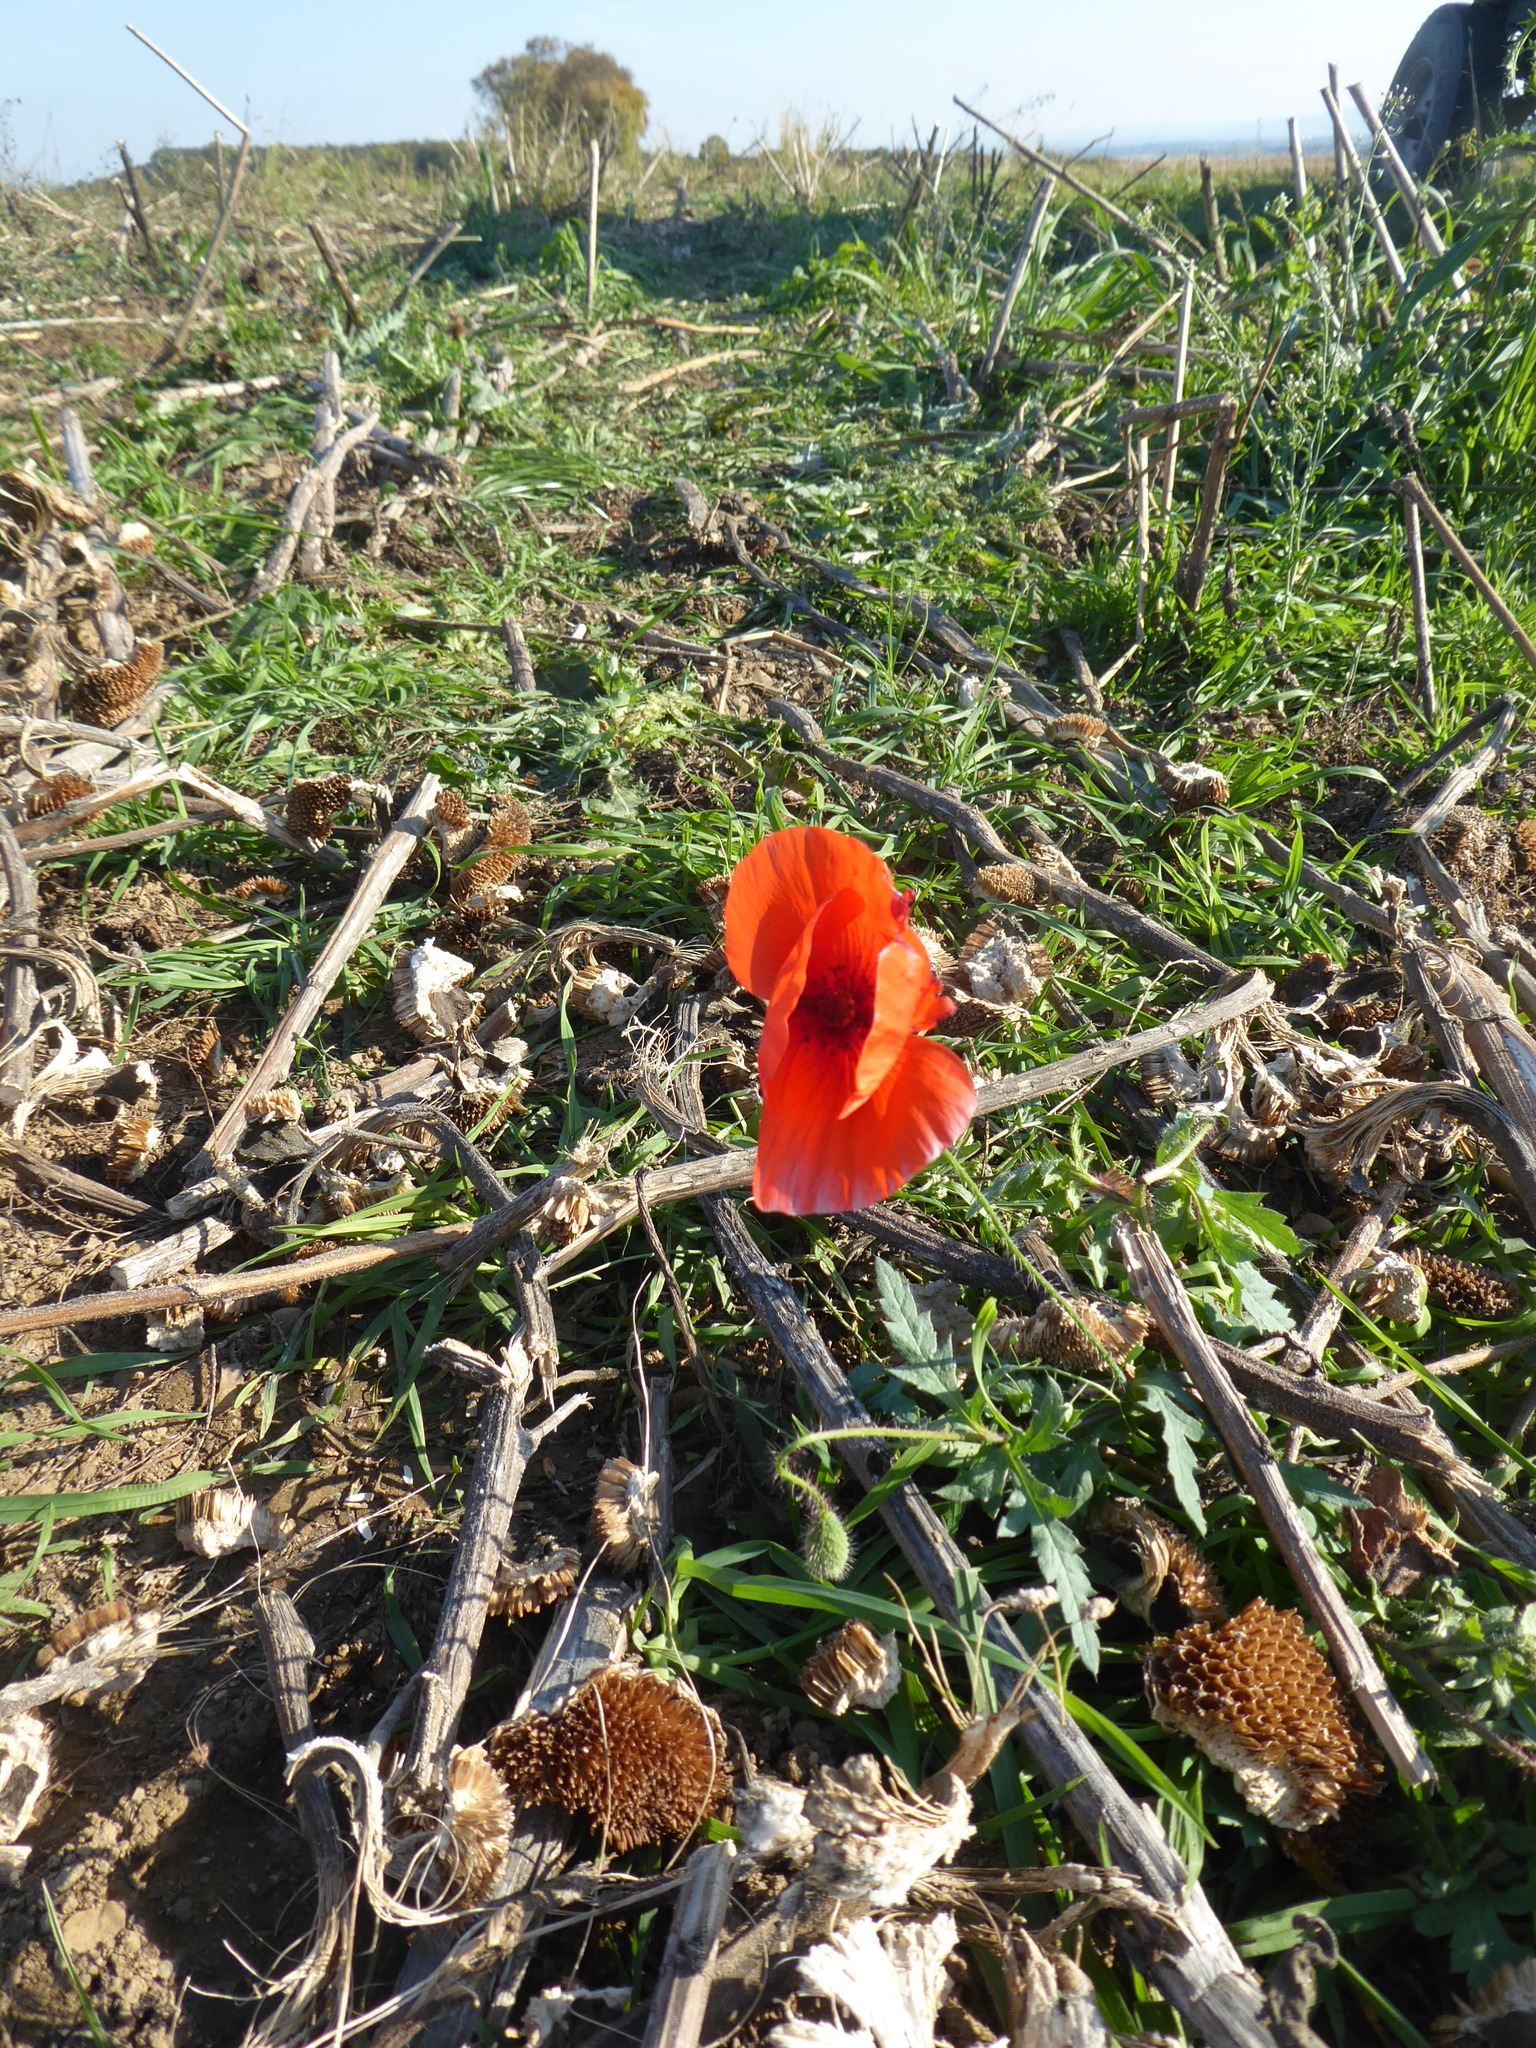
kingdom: Plantae
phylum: Tracheophyta
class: Magnoliopsida
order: Ranunculales
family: Papaveraceae
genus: Papaver
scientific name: Papaver rhoeas
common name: Corn poppy
